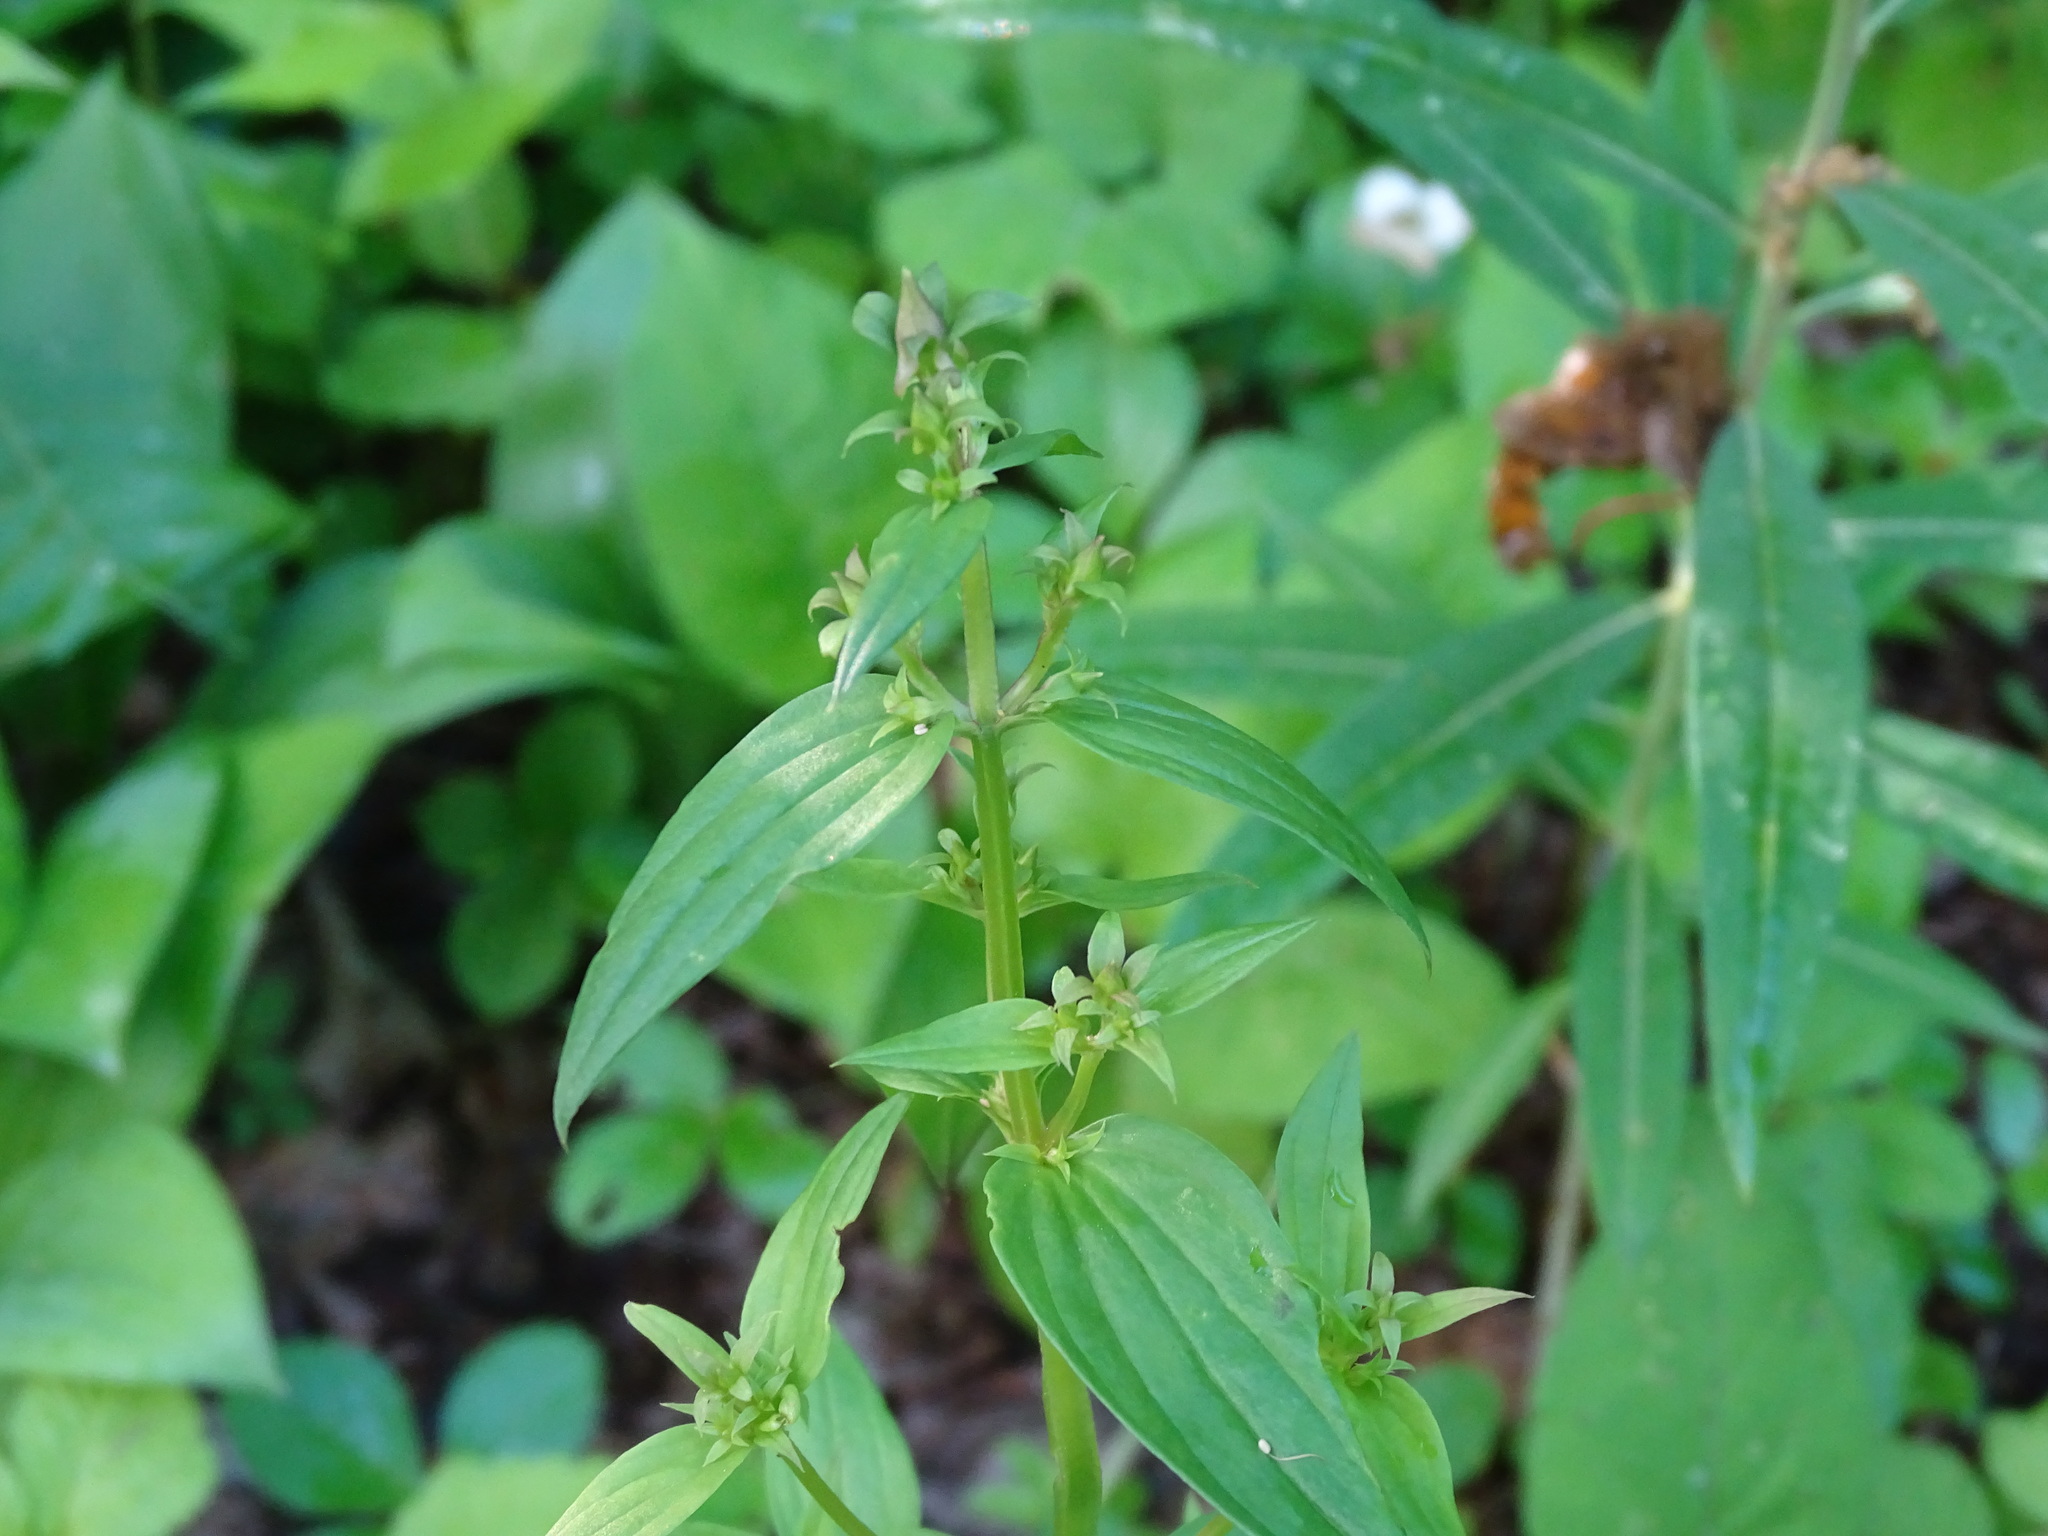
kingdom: Plantae
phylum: Tracheophyta
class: Magnoliopsida
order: Gentianales
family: Gentianaceae
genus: Halenia
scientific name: Halenia deflexa
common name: American spurred gentian
